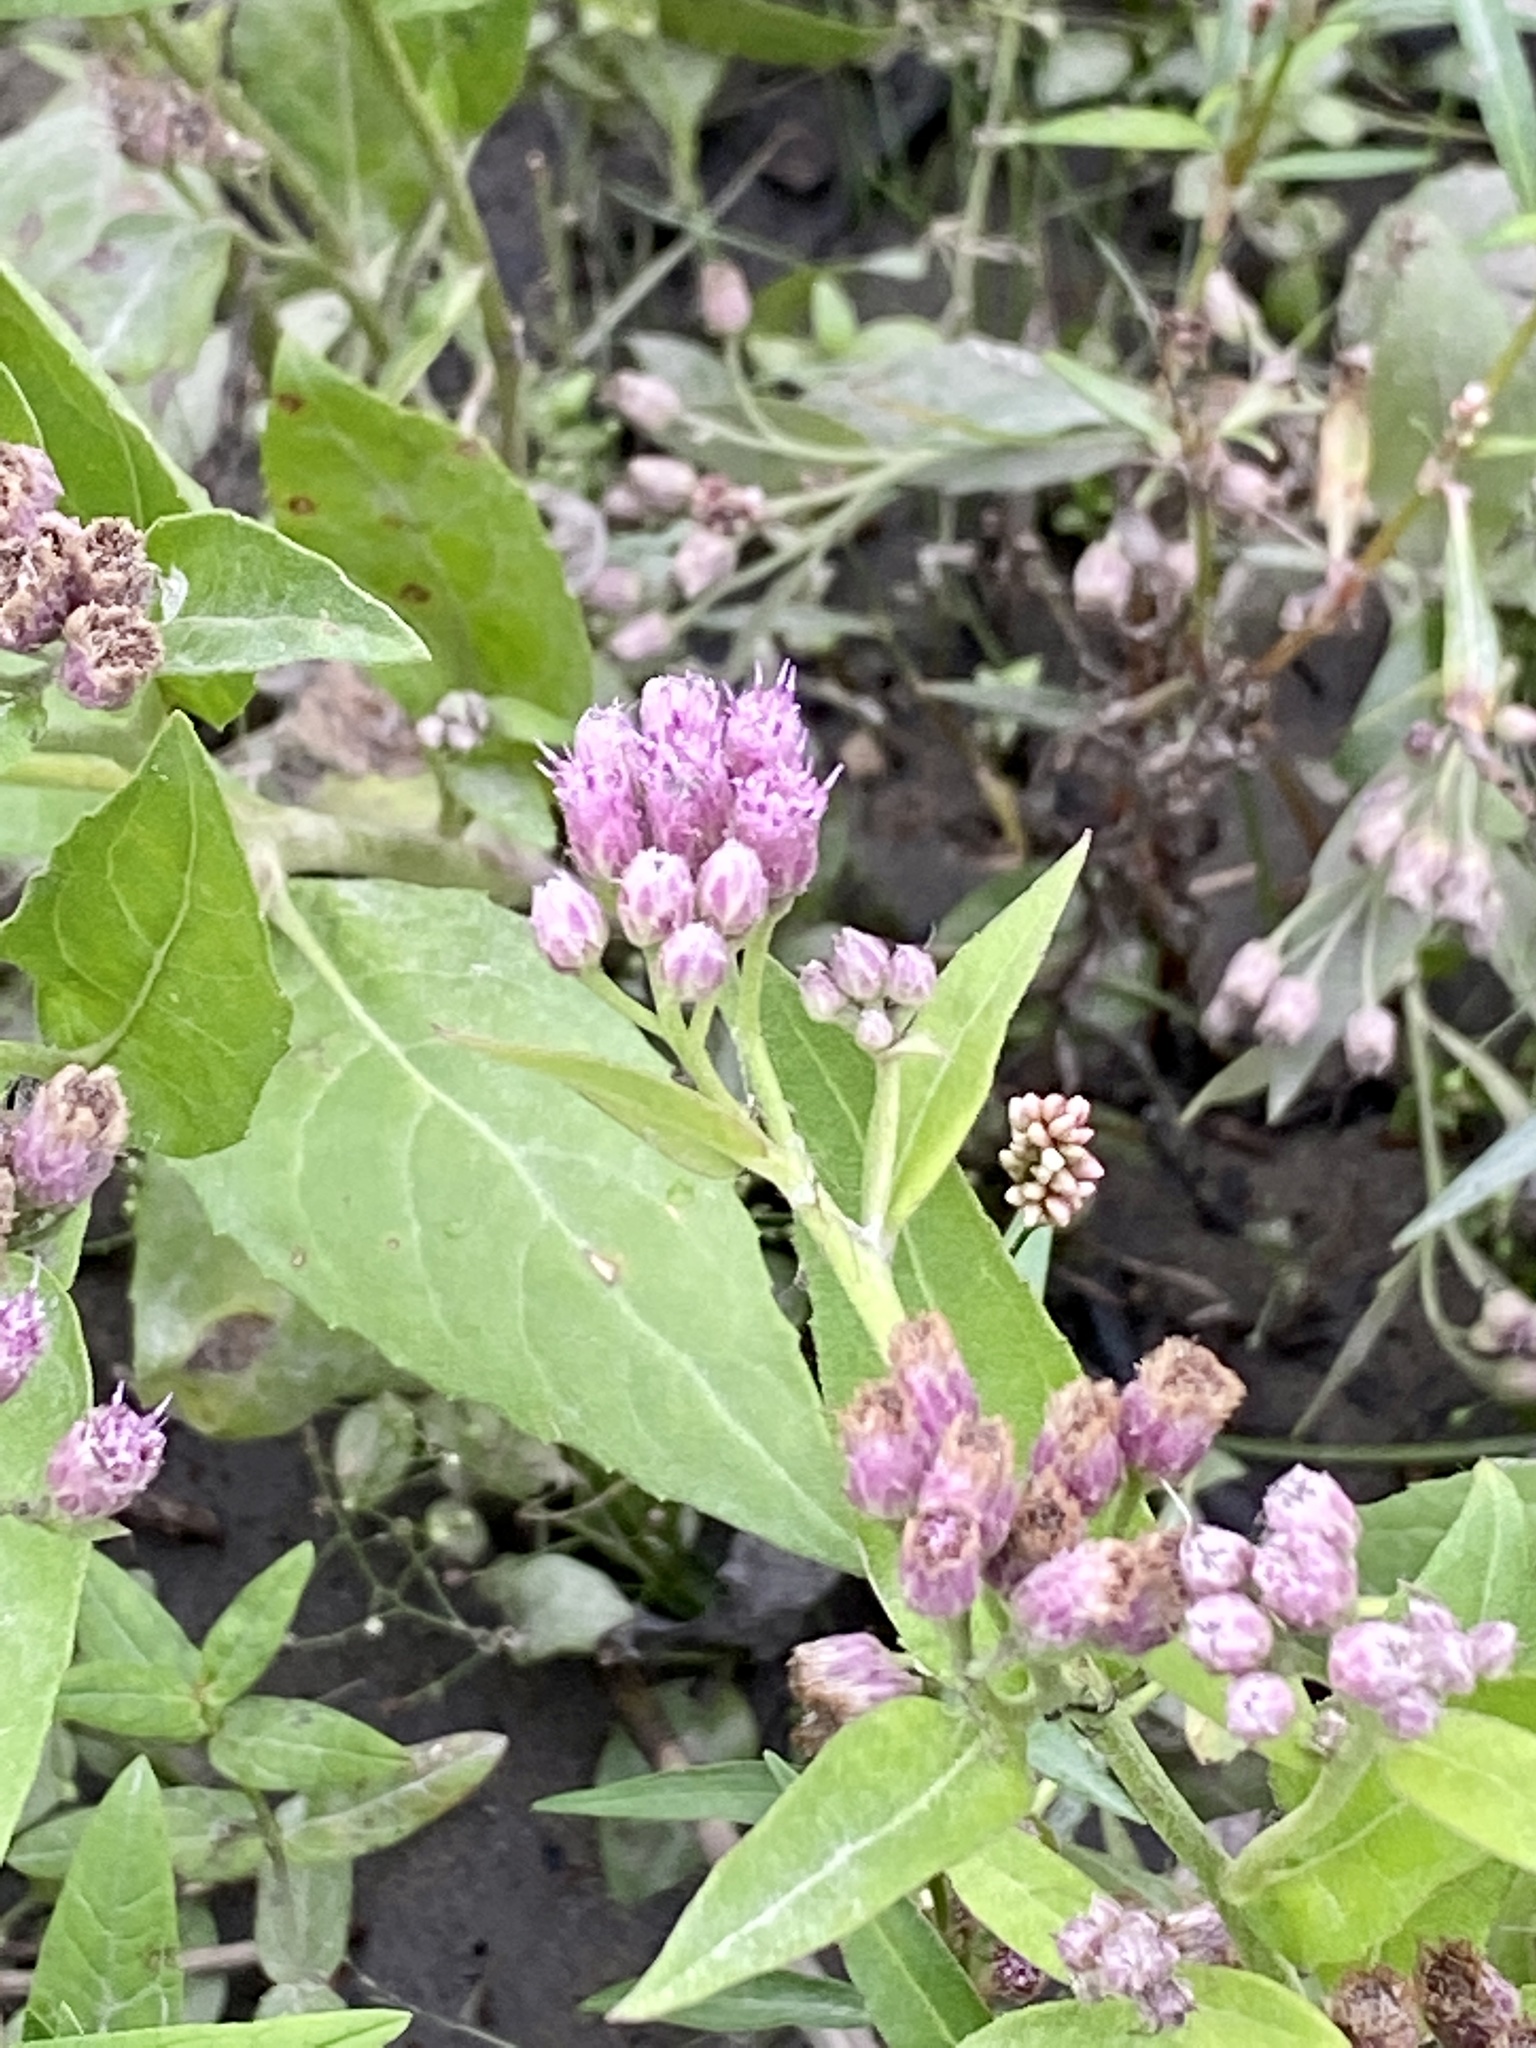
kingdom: Plantae
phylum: Tracheophyta
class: Magnoliopsida
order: Asterales
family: Asteraceae
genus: Pluchea
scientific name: Pluchea odorata
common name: Saltmarsh fleabane
